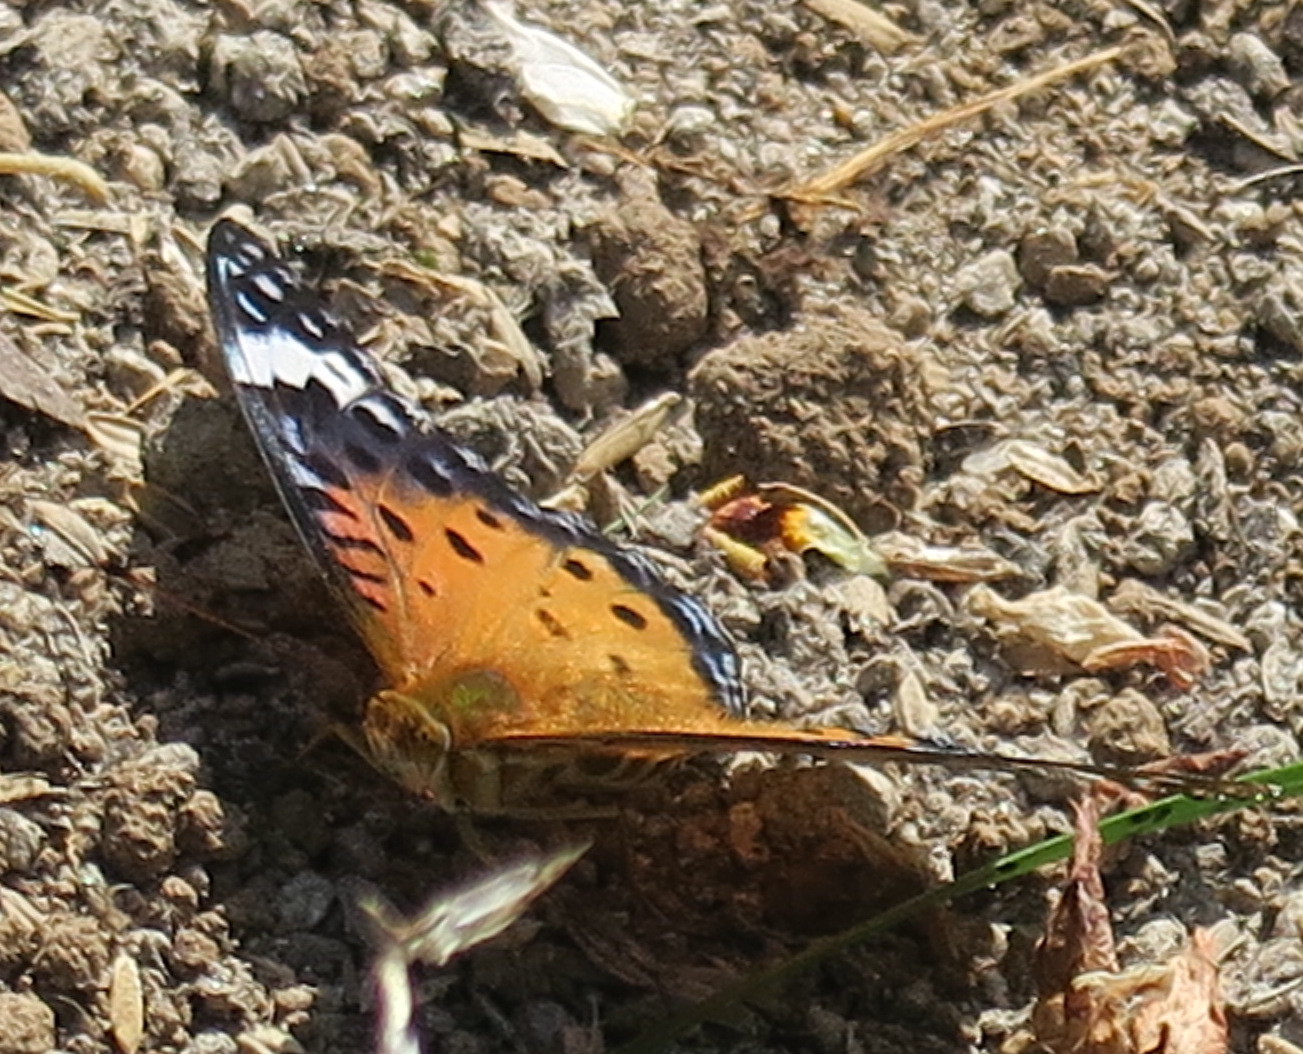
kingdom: Animalia
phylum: Arthropoda
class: Insecta
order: Lepidoptera
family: Nymphalidae
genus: Argynnis
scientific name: Argynnis hyperbius
